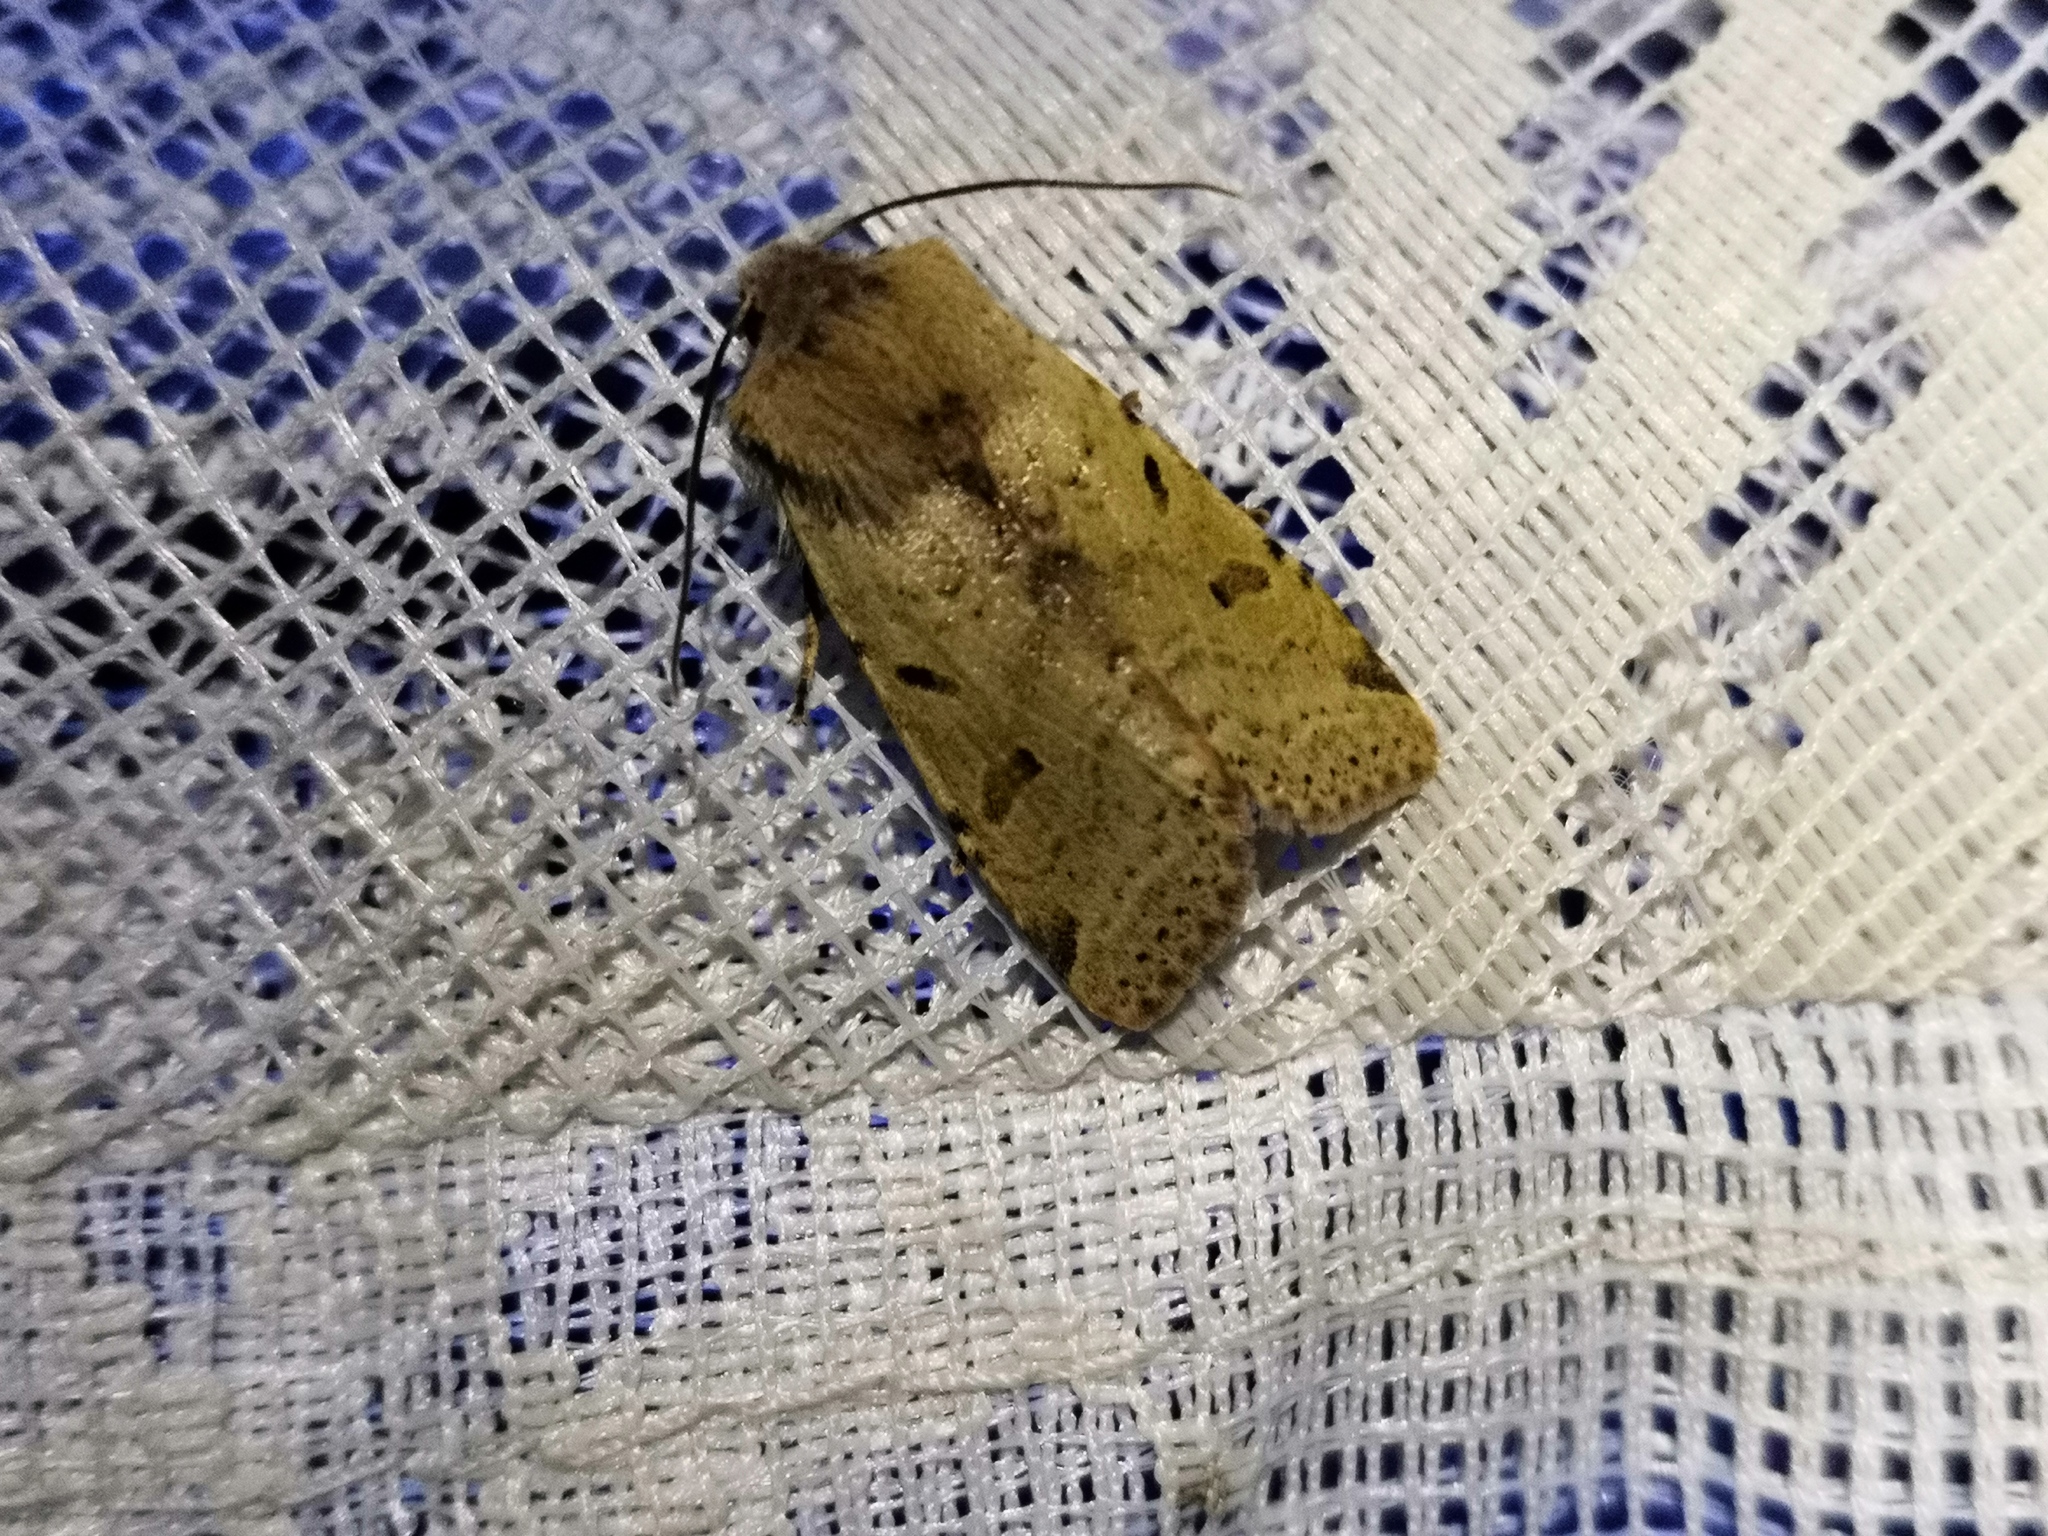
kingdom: Animalia
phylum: Arthropoda
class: Insecta
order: Lepidoptera
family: Noctuidae
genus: Agrochola
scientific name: Agrochola lychnidis
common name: Beaded chestnut
